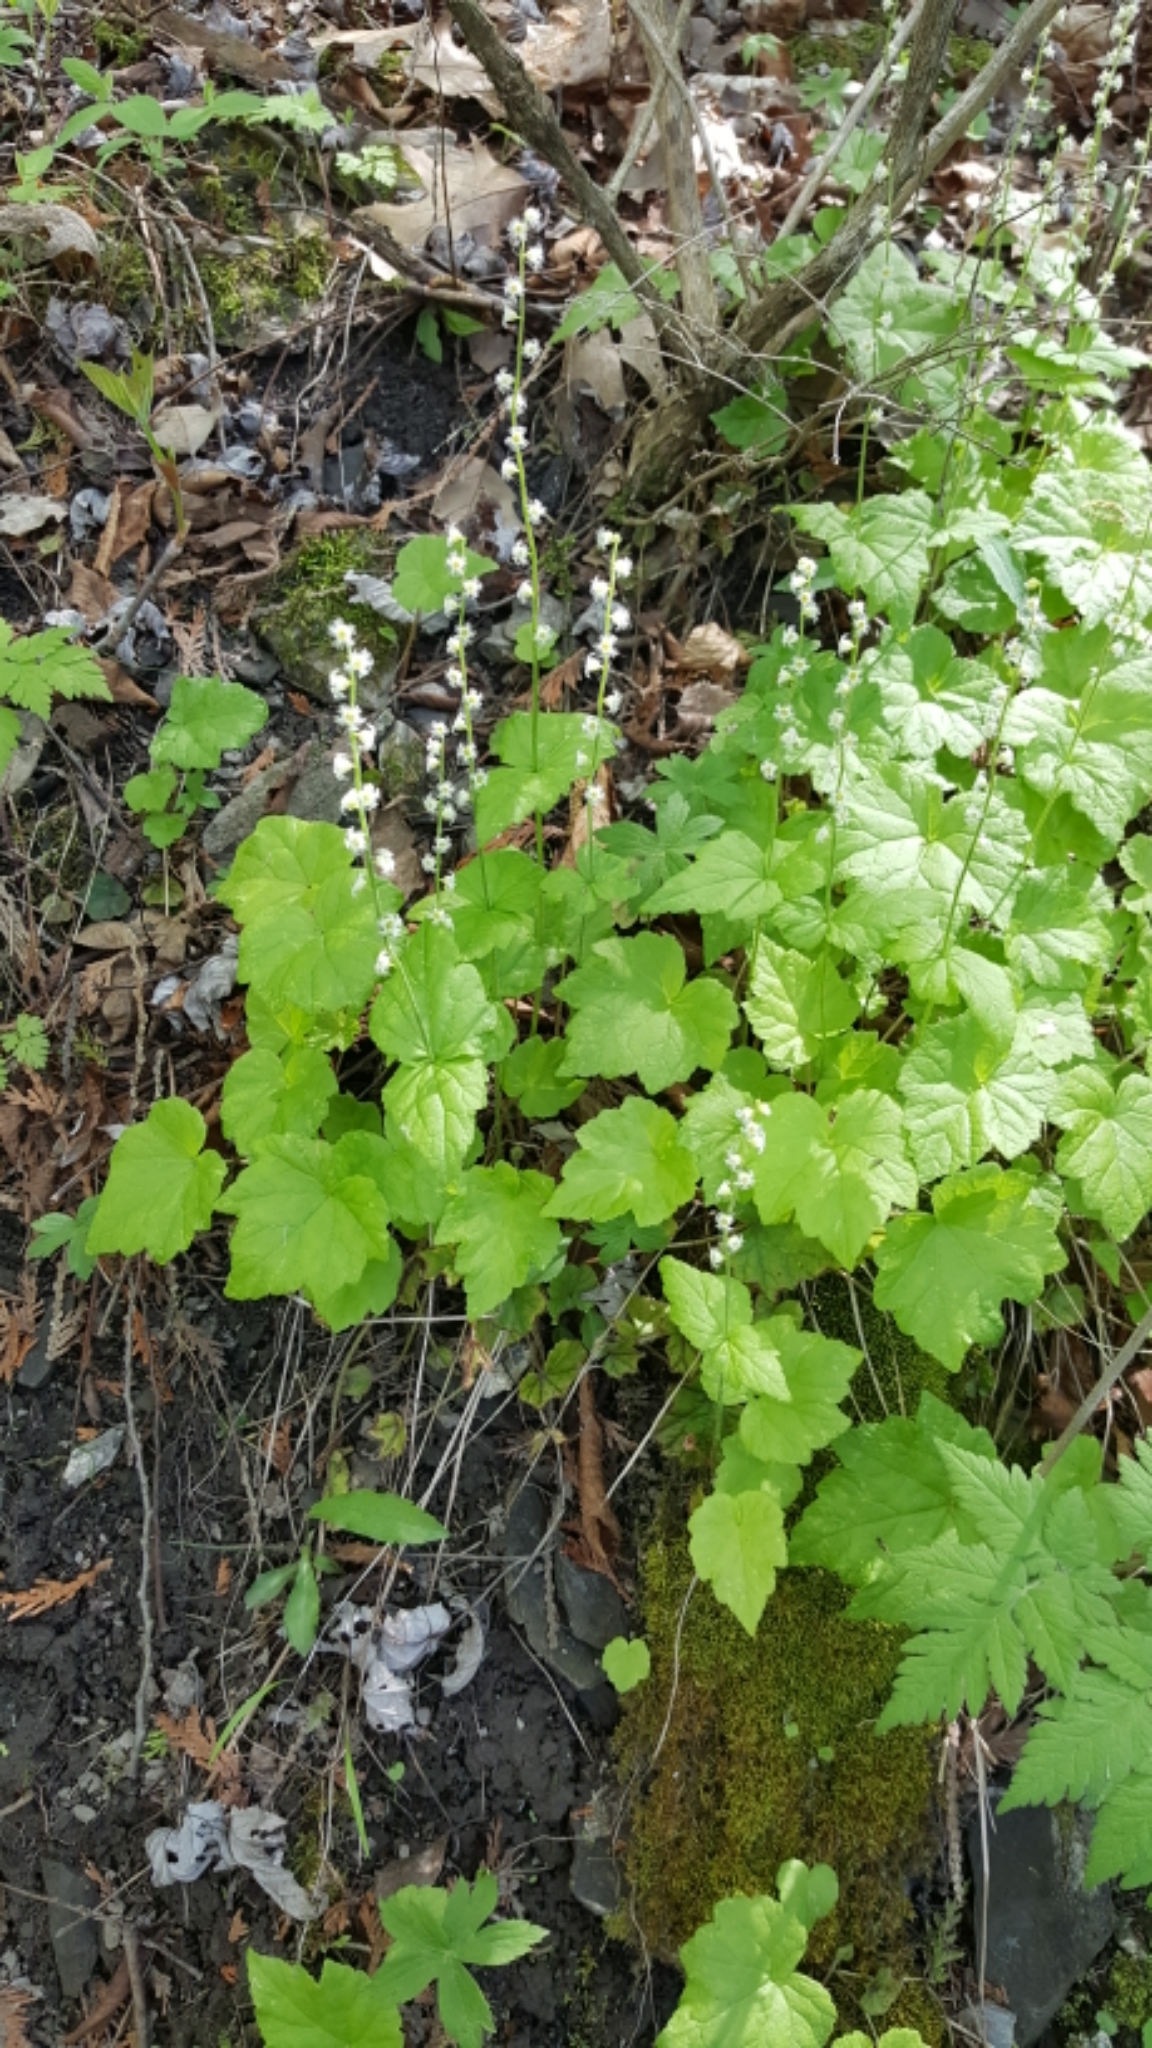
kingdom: Plantae
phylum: Tracheophyta
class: Magnoliopsida
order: Saxifragales
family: Saxifragaceae
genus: Mitella
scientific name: Mitella diphylla
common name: Coolwort
